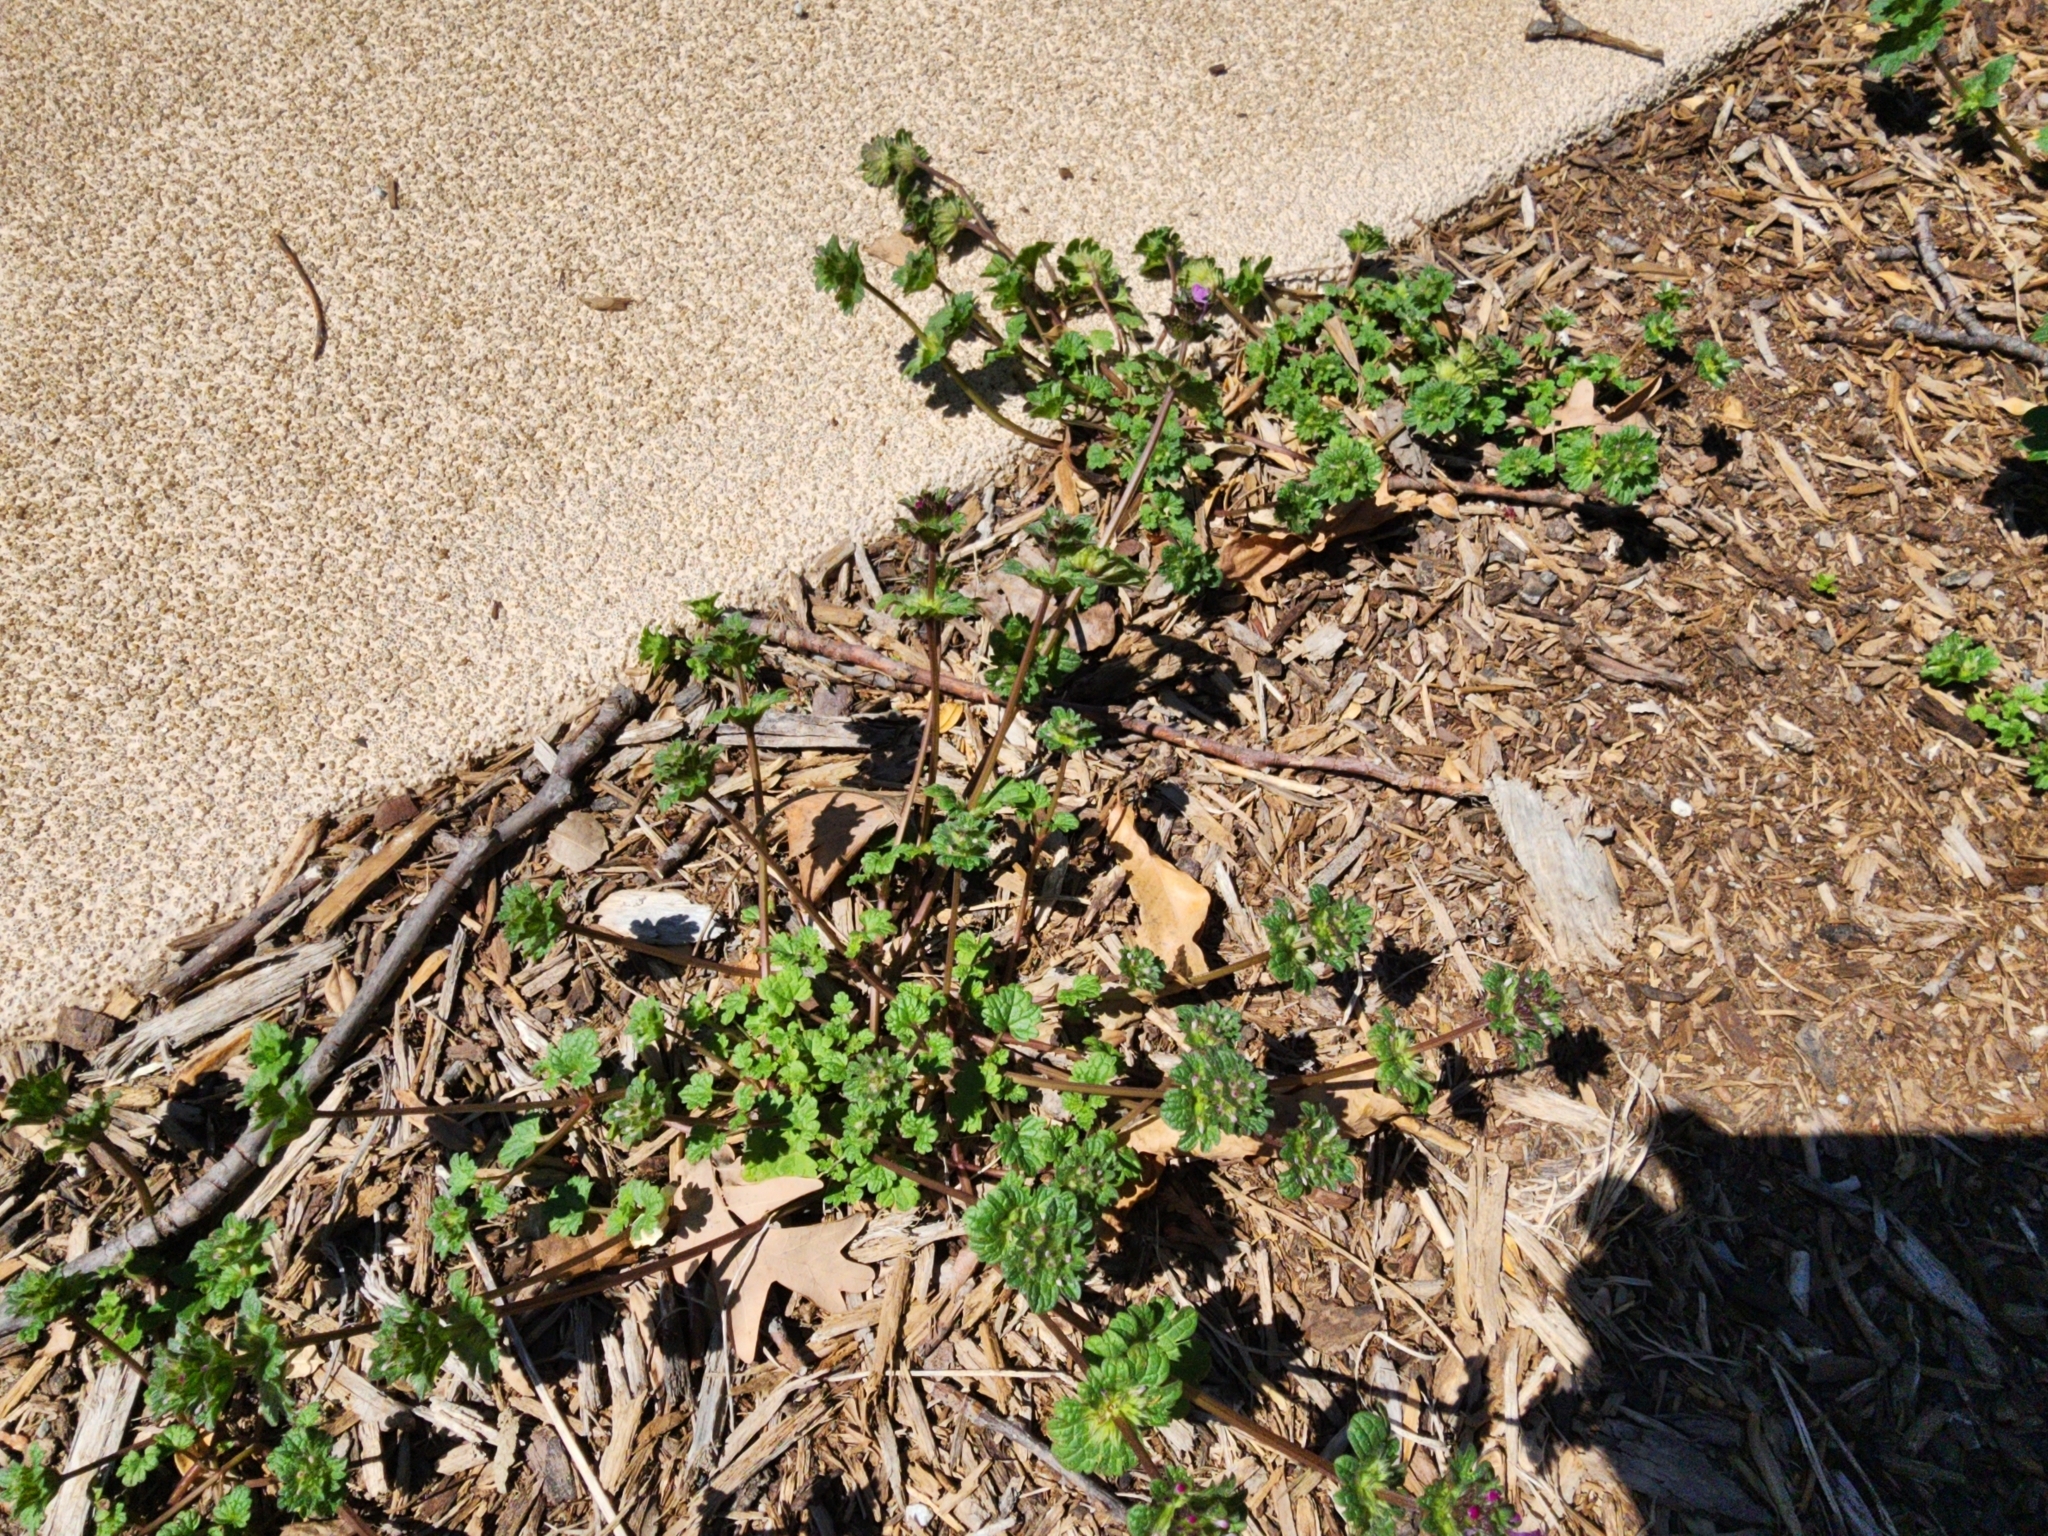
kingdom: Plantae
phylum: Tracheophyta
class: Magnoliopsida
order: Lamiales
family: Lamiaceae
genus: Lamium
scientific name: Lamium amplexicaule
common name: Henbit dead-nettle
